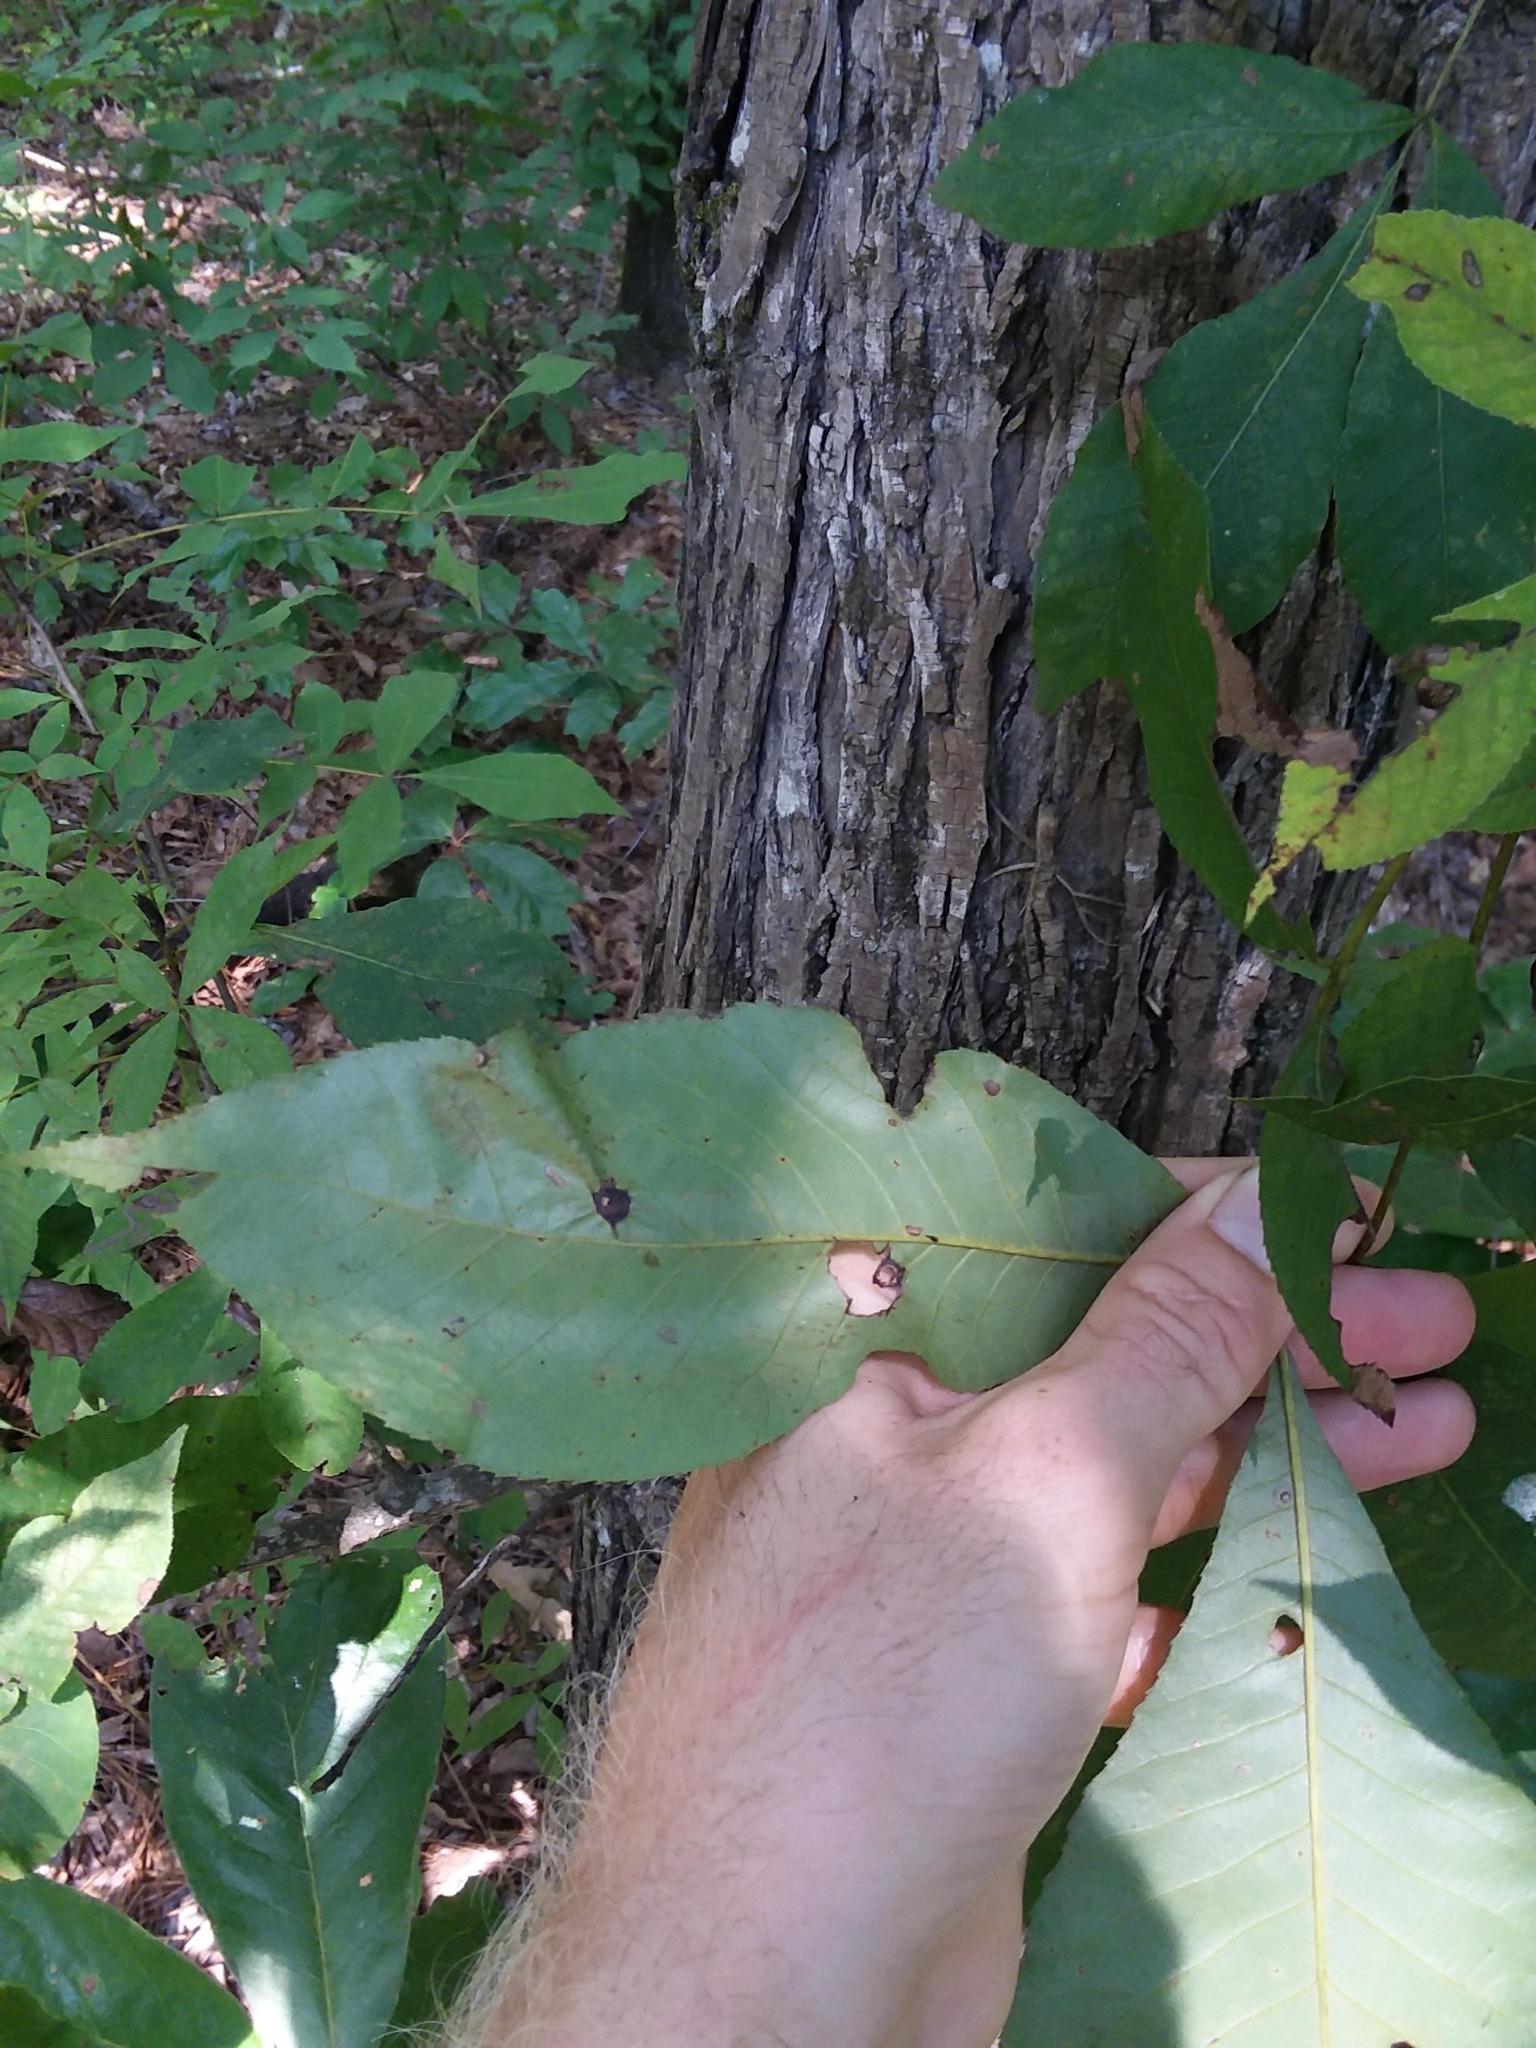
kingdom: Plantae
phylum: Tracheophyta
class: Magnoliopsida
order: Fagales
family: Juglandaceae
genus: Carya
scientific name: Carya carolinae-septentrionalis
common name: Carolina hickory
